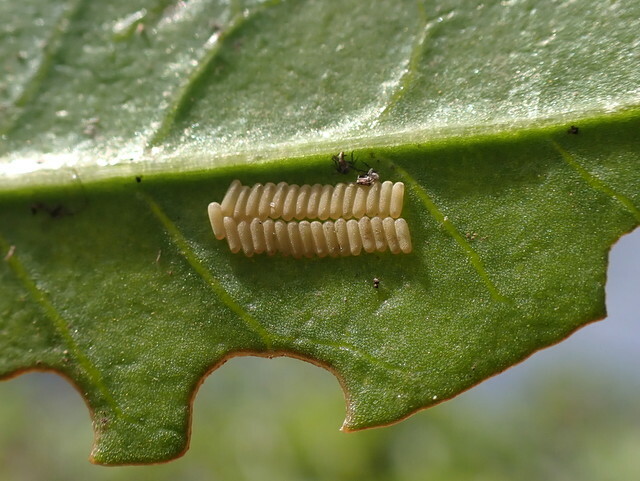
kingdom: Animalia
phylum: Arthropoda
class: Insecta
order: Coleoptera
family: Chrysomelidae
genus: Agasicles
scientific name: Agasicles hygrophila
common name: Alligatorweed flea beetle
